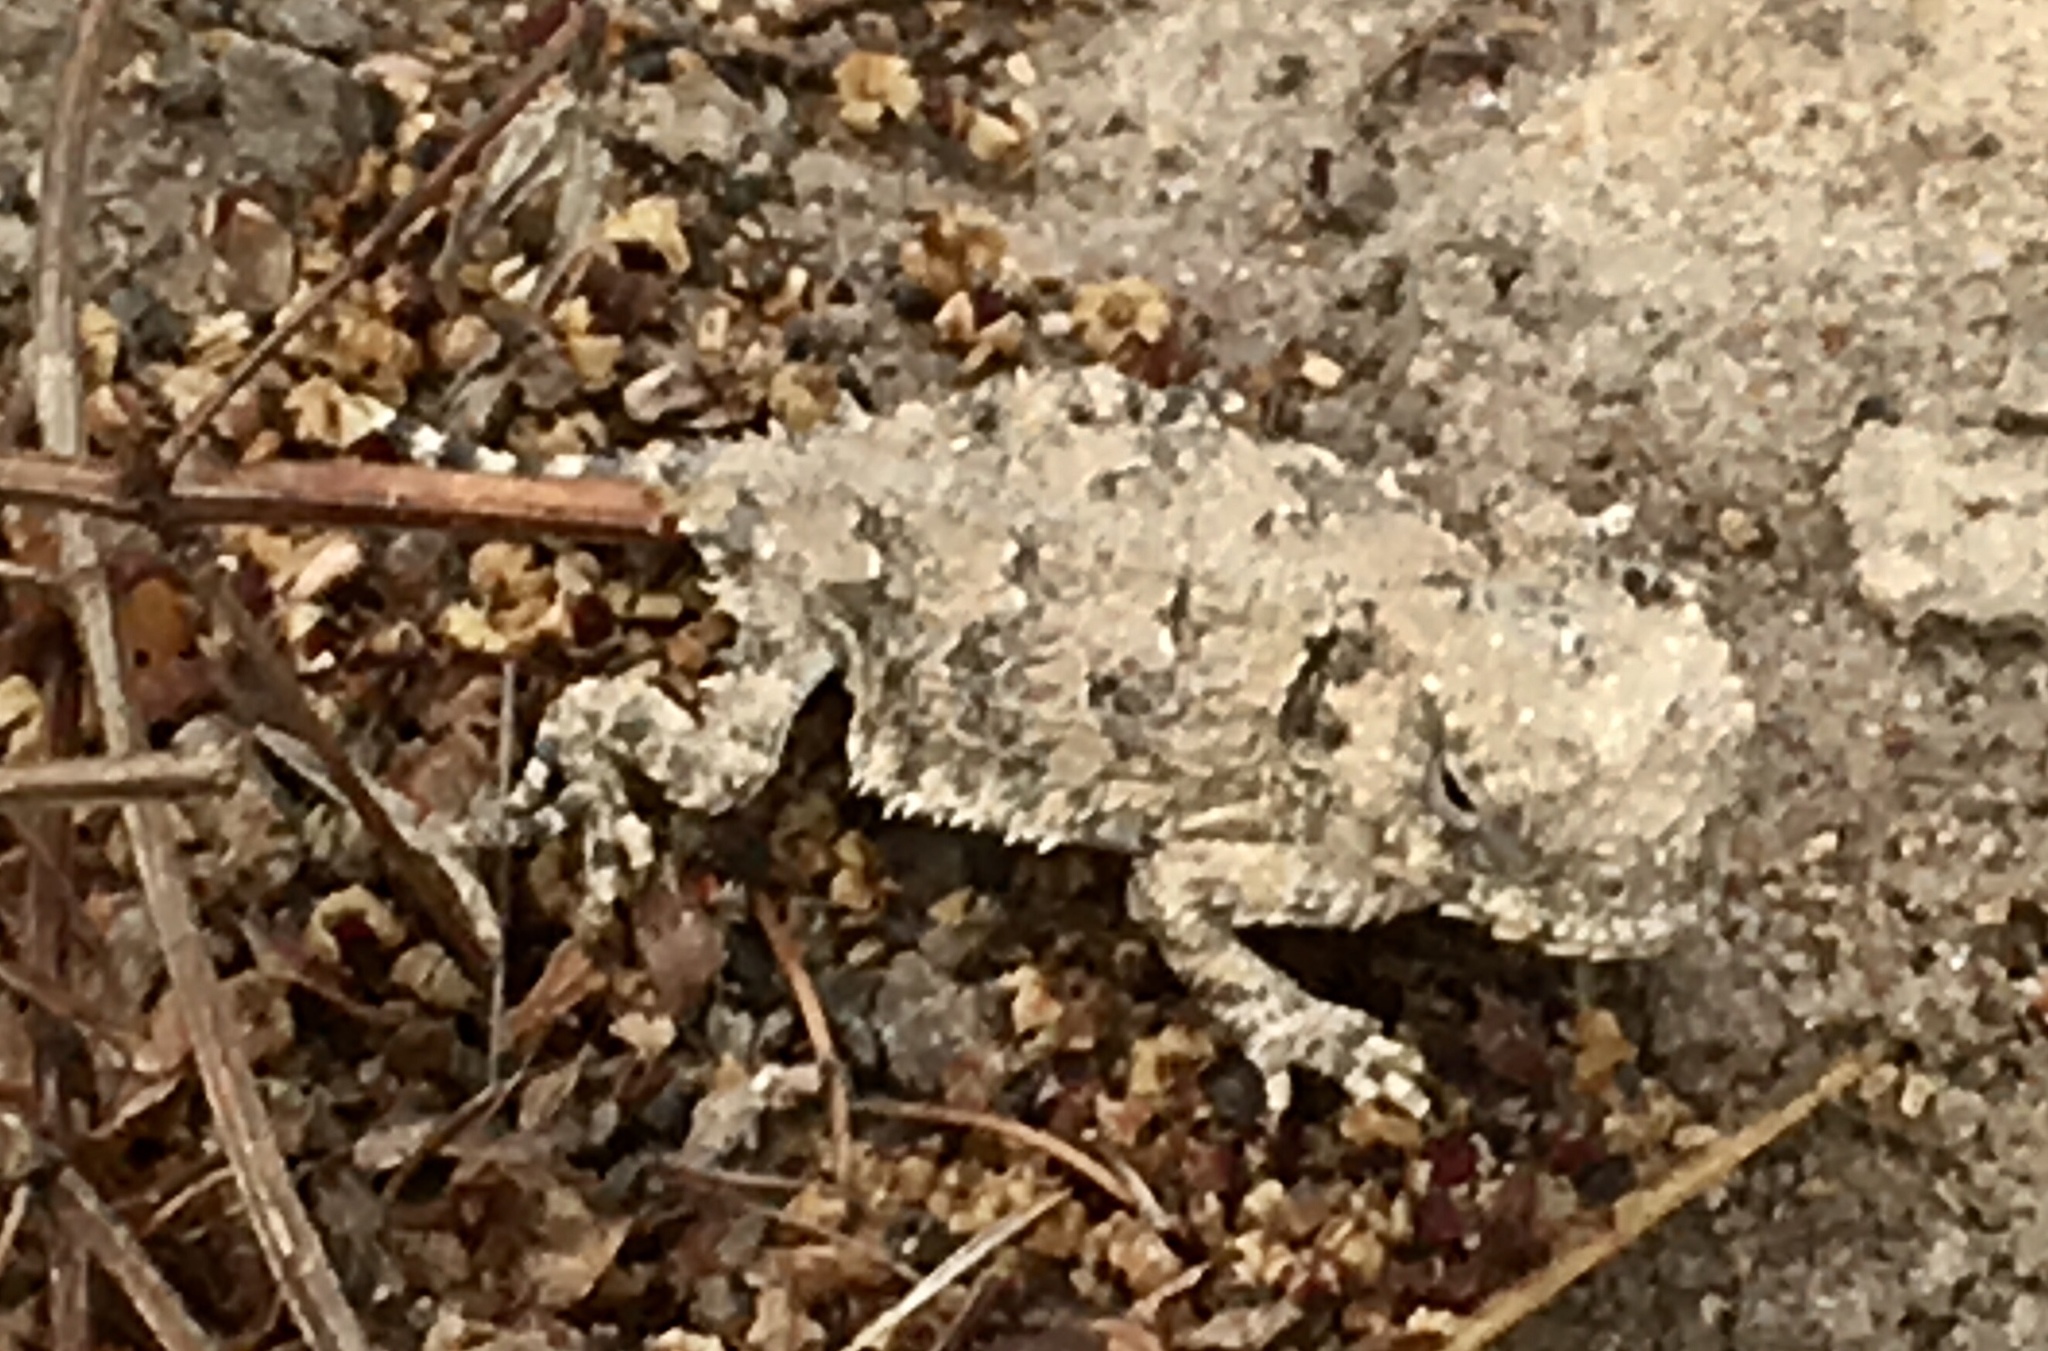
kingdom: Animalia
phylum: Chordata
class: Squamata
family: Phrynosomatidae
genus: Phrynosoma
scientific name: Phrynosoma blainvillii
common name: San diego horned lizard
